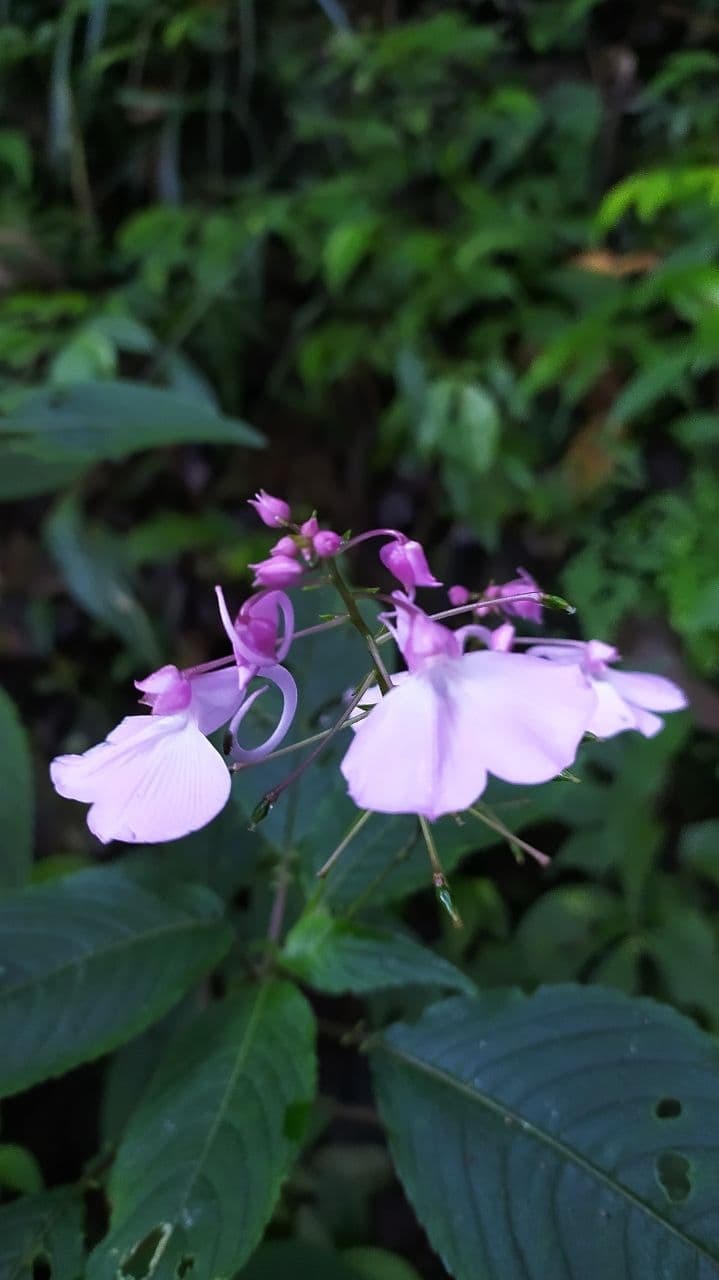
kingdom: Plantae
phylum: Tracheophyta
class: Magnoliopsida
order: Ericales
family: Balsaminaceae
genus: Impatiens
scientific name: Impatiens maculata
